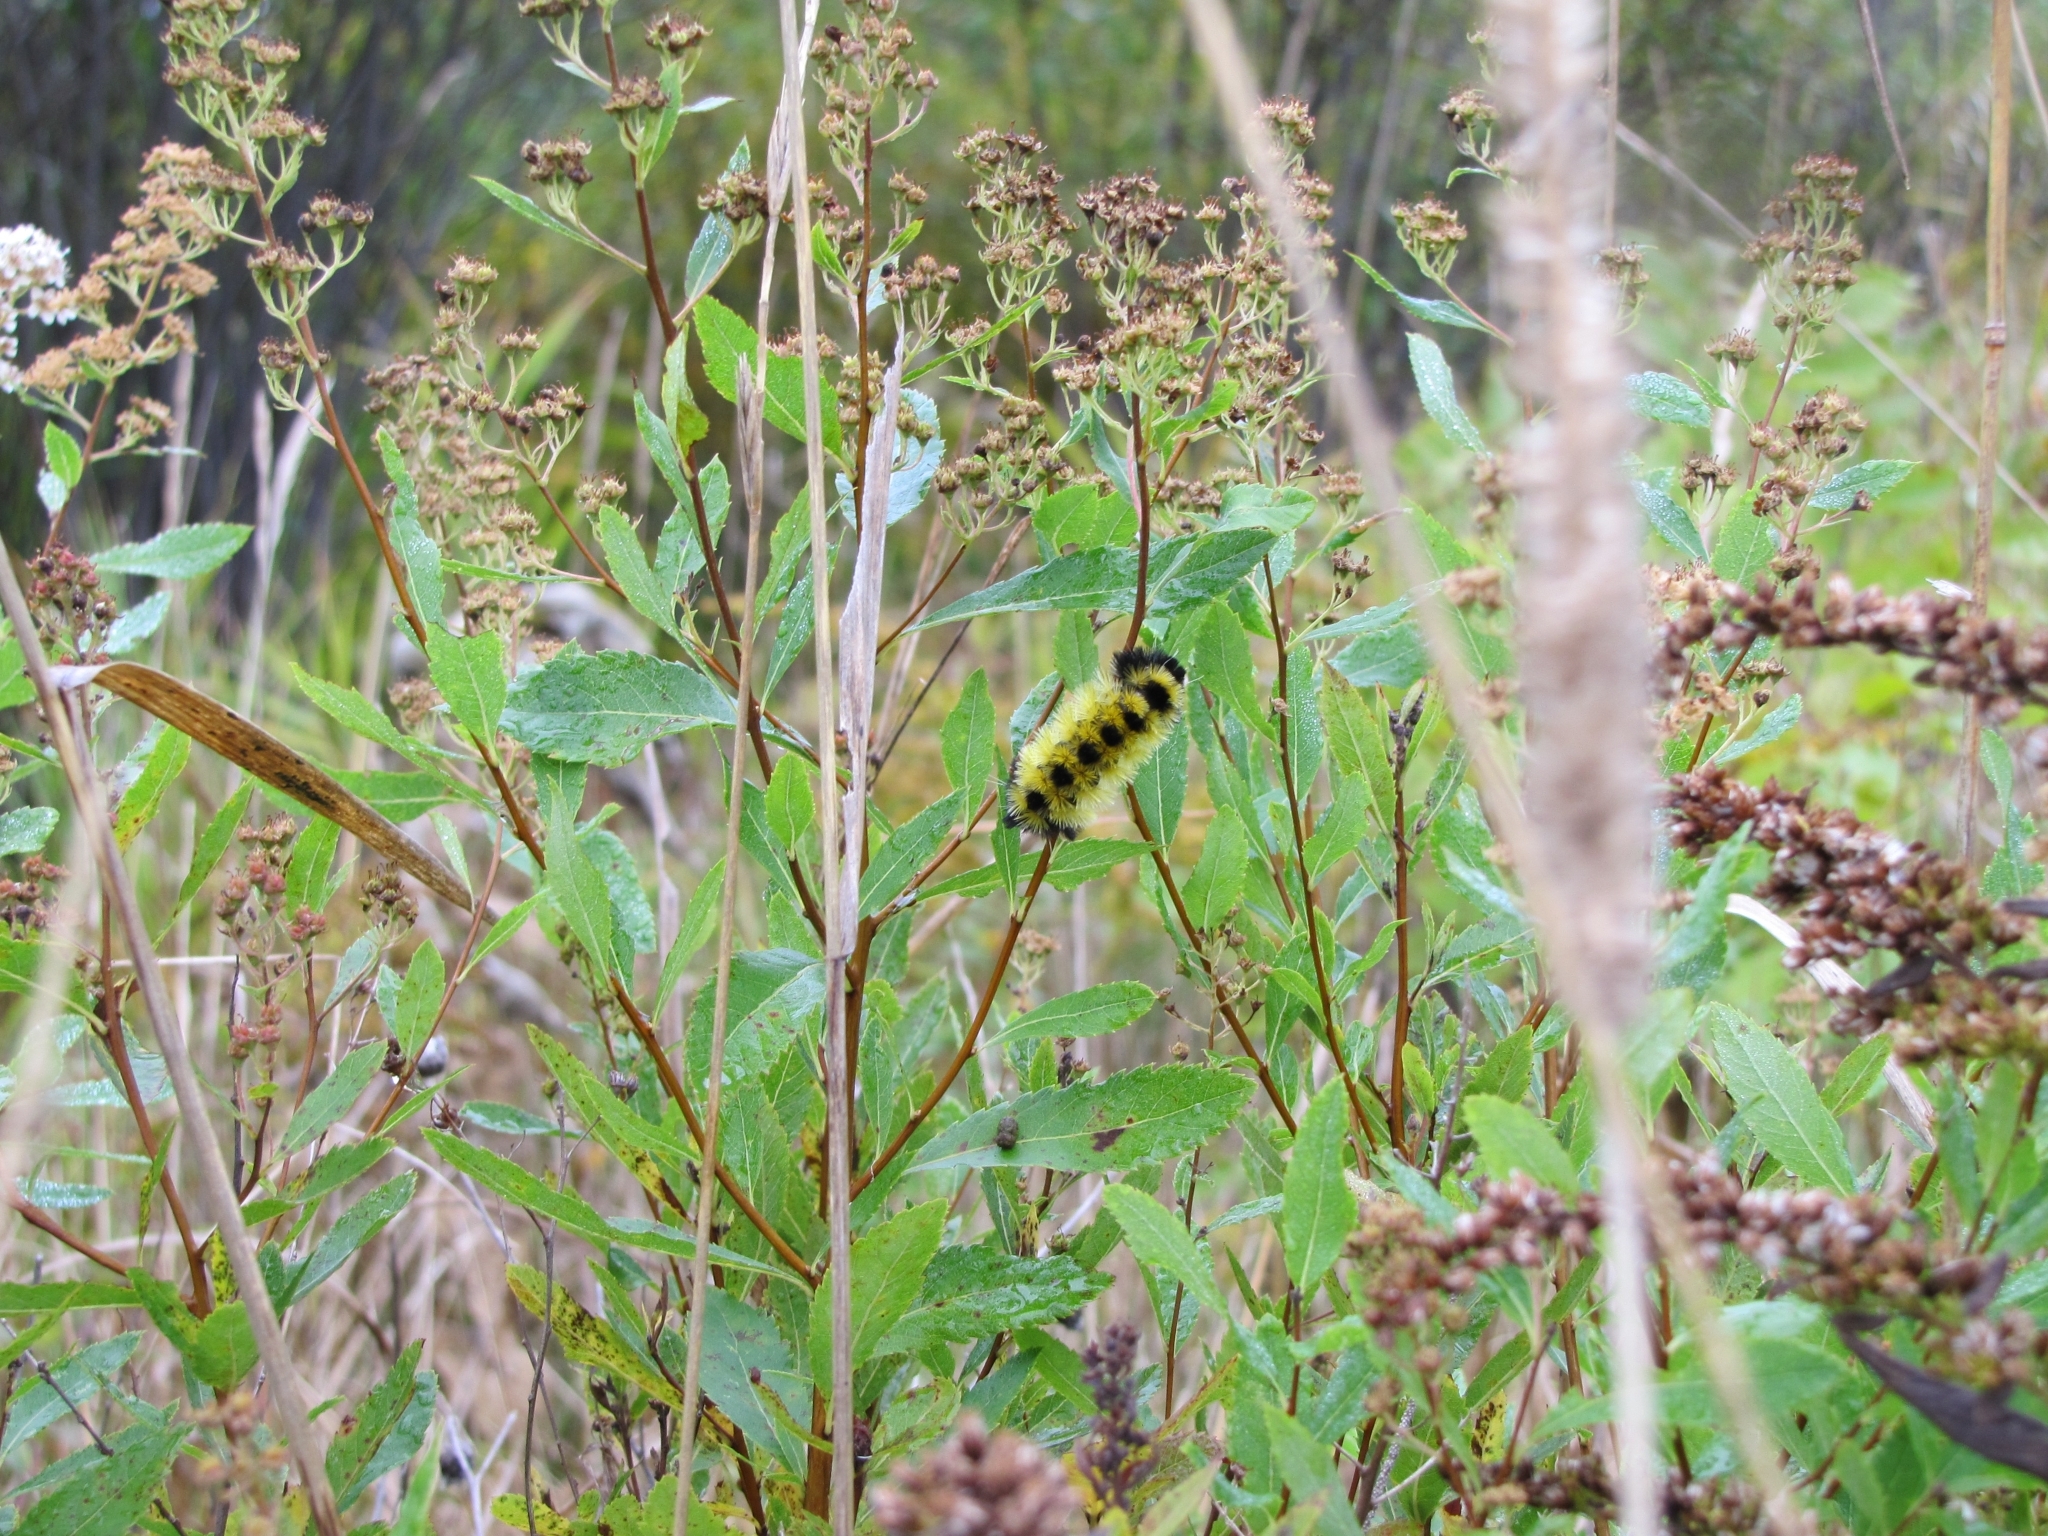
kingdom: Animalia
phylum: Arthropoda
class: Insecta
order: Lepidoptera
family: Erebidae
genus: Lophocampa
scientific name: Lophocampa maculata
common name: Spotted tussock moth
